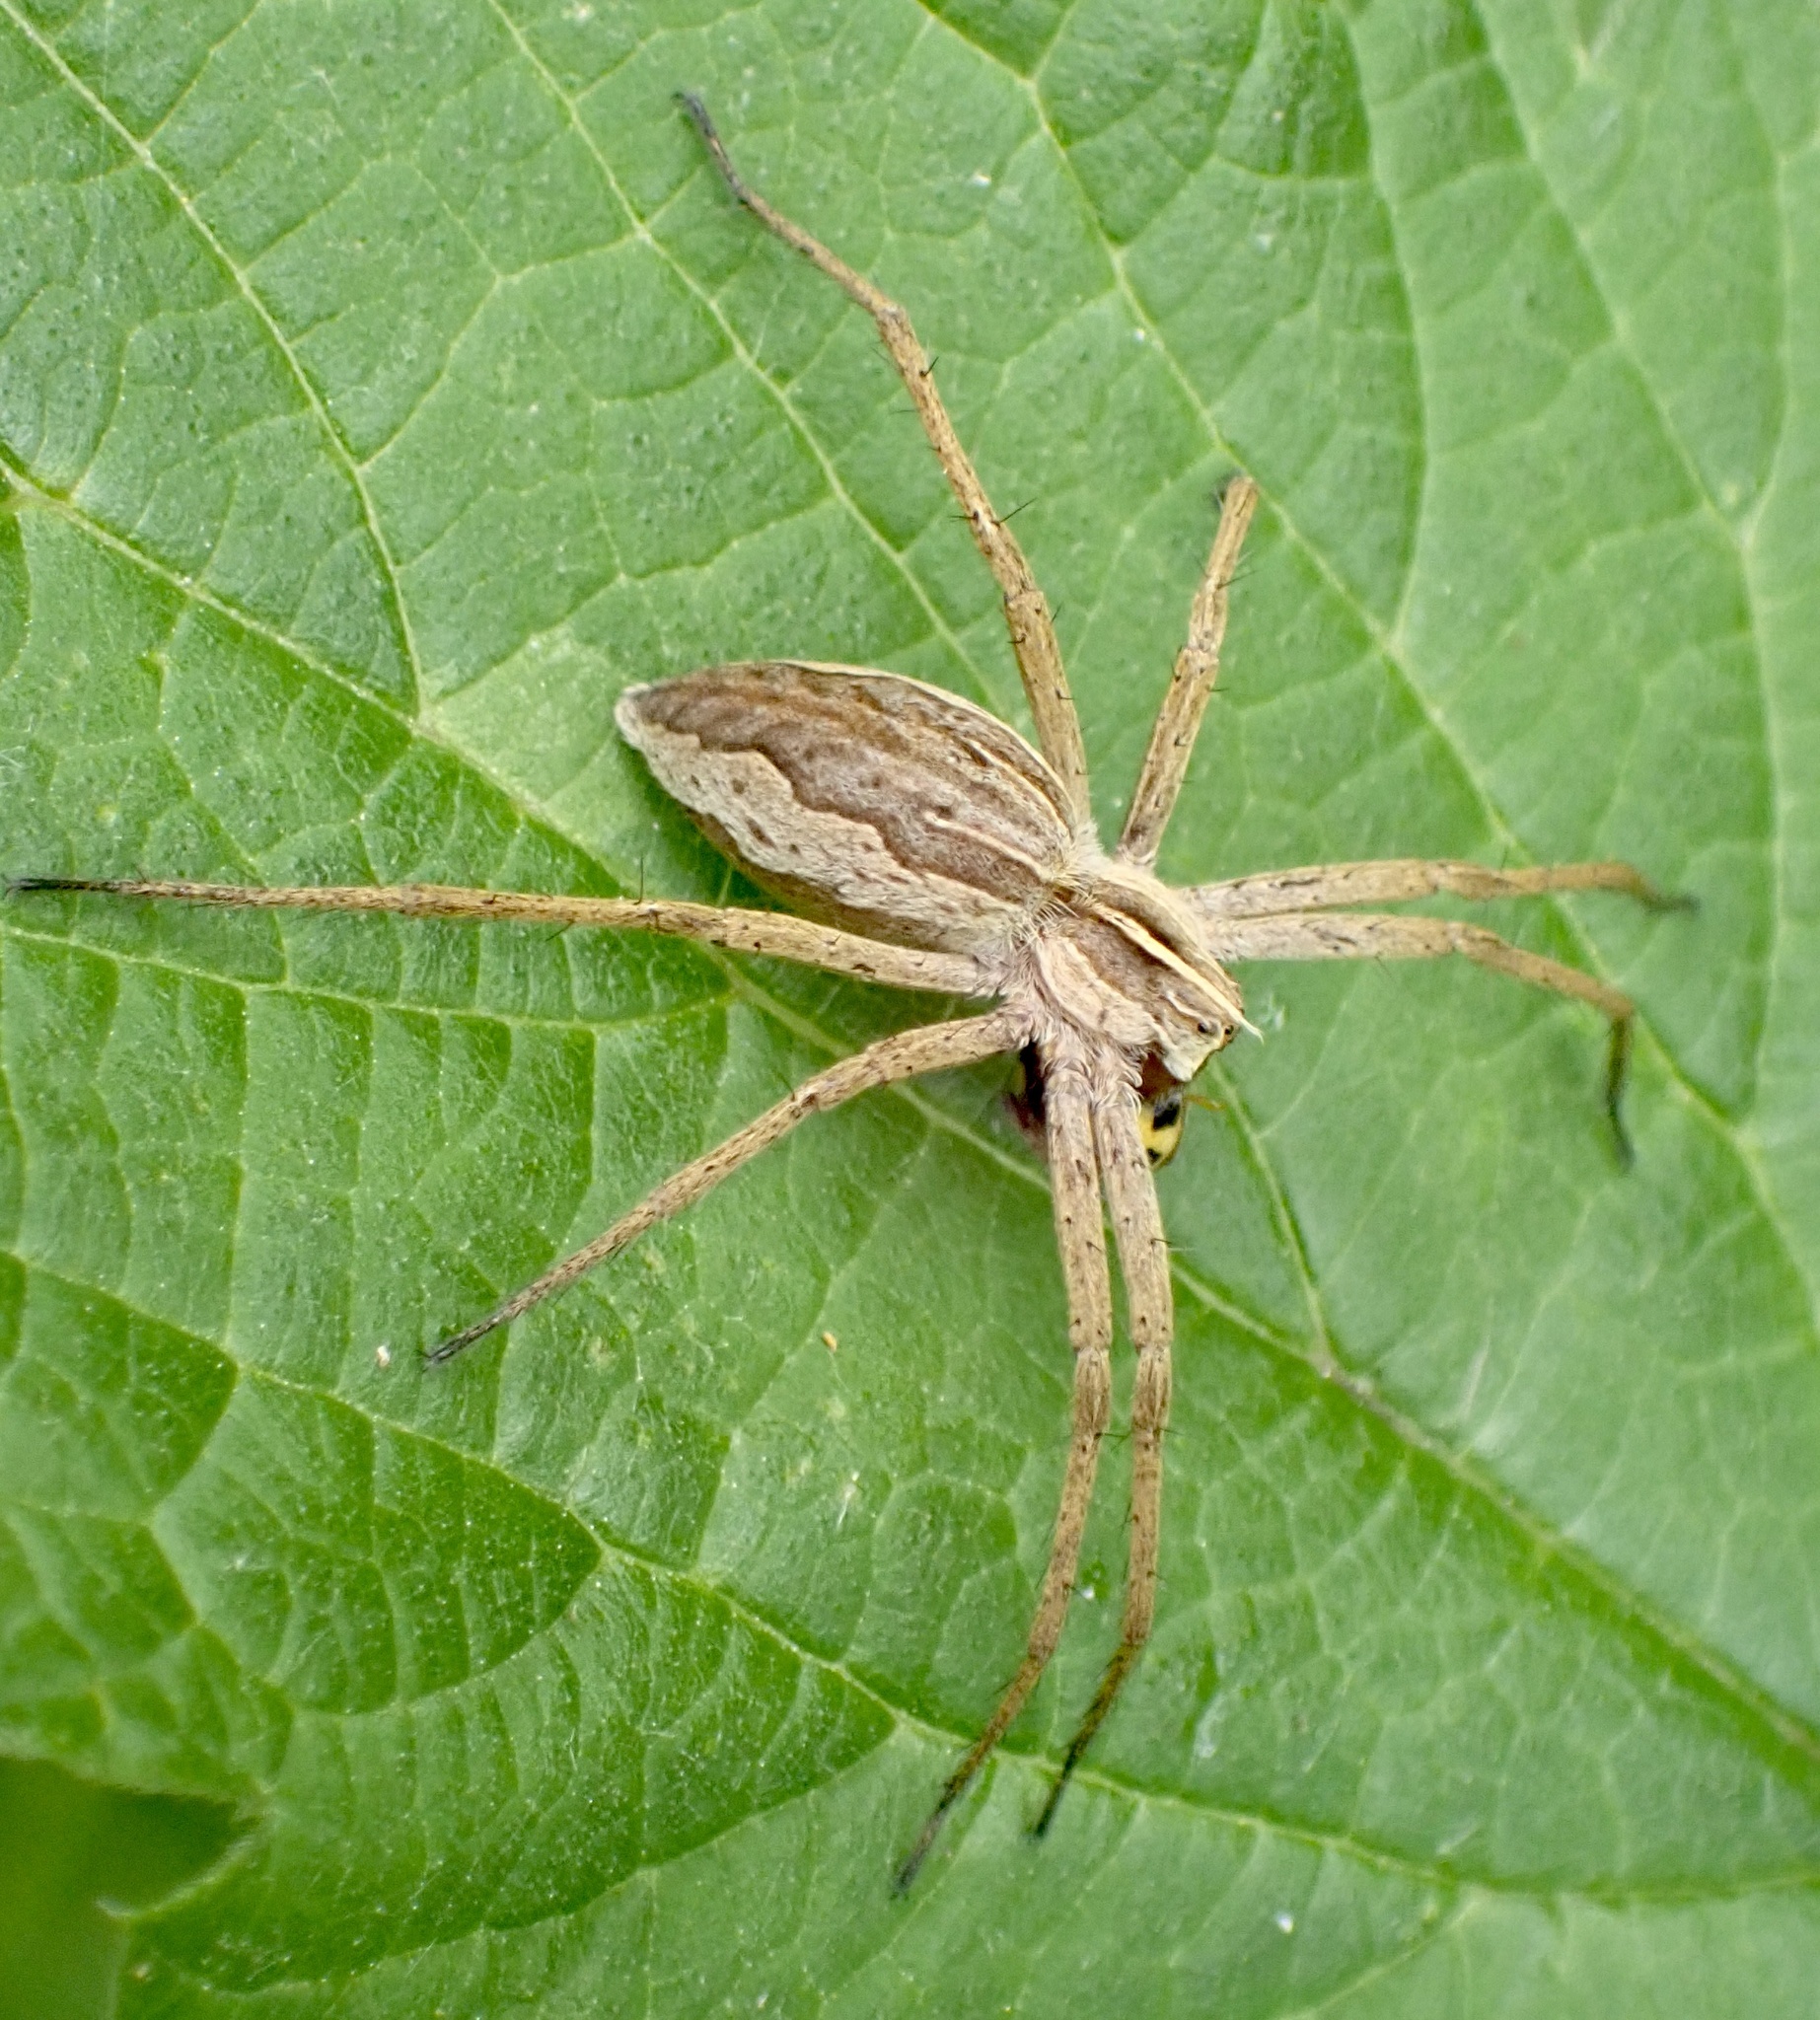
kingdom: Animalia
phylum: Arthropoda
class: Arachnida
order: Araneae
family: Pisauridae
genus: Pisaura
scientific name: Pisaura mirabilis
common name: Tent spider
